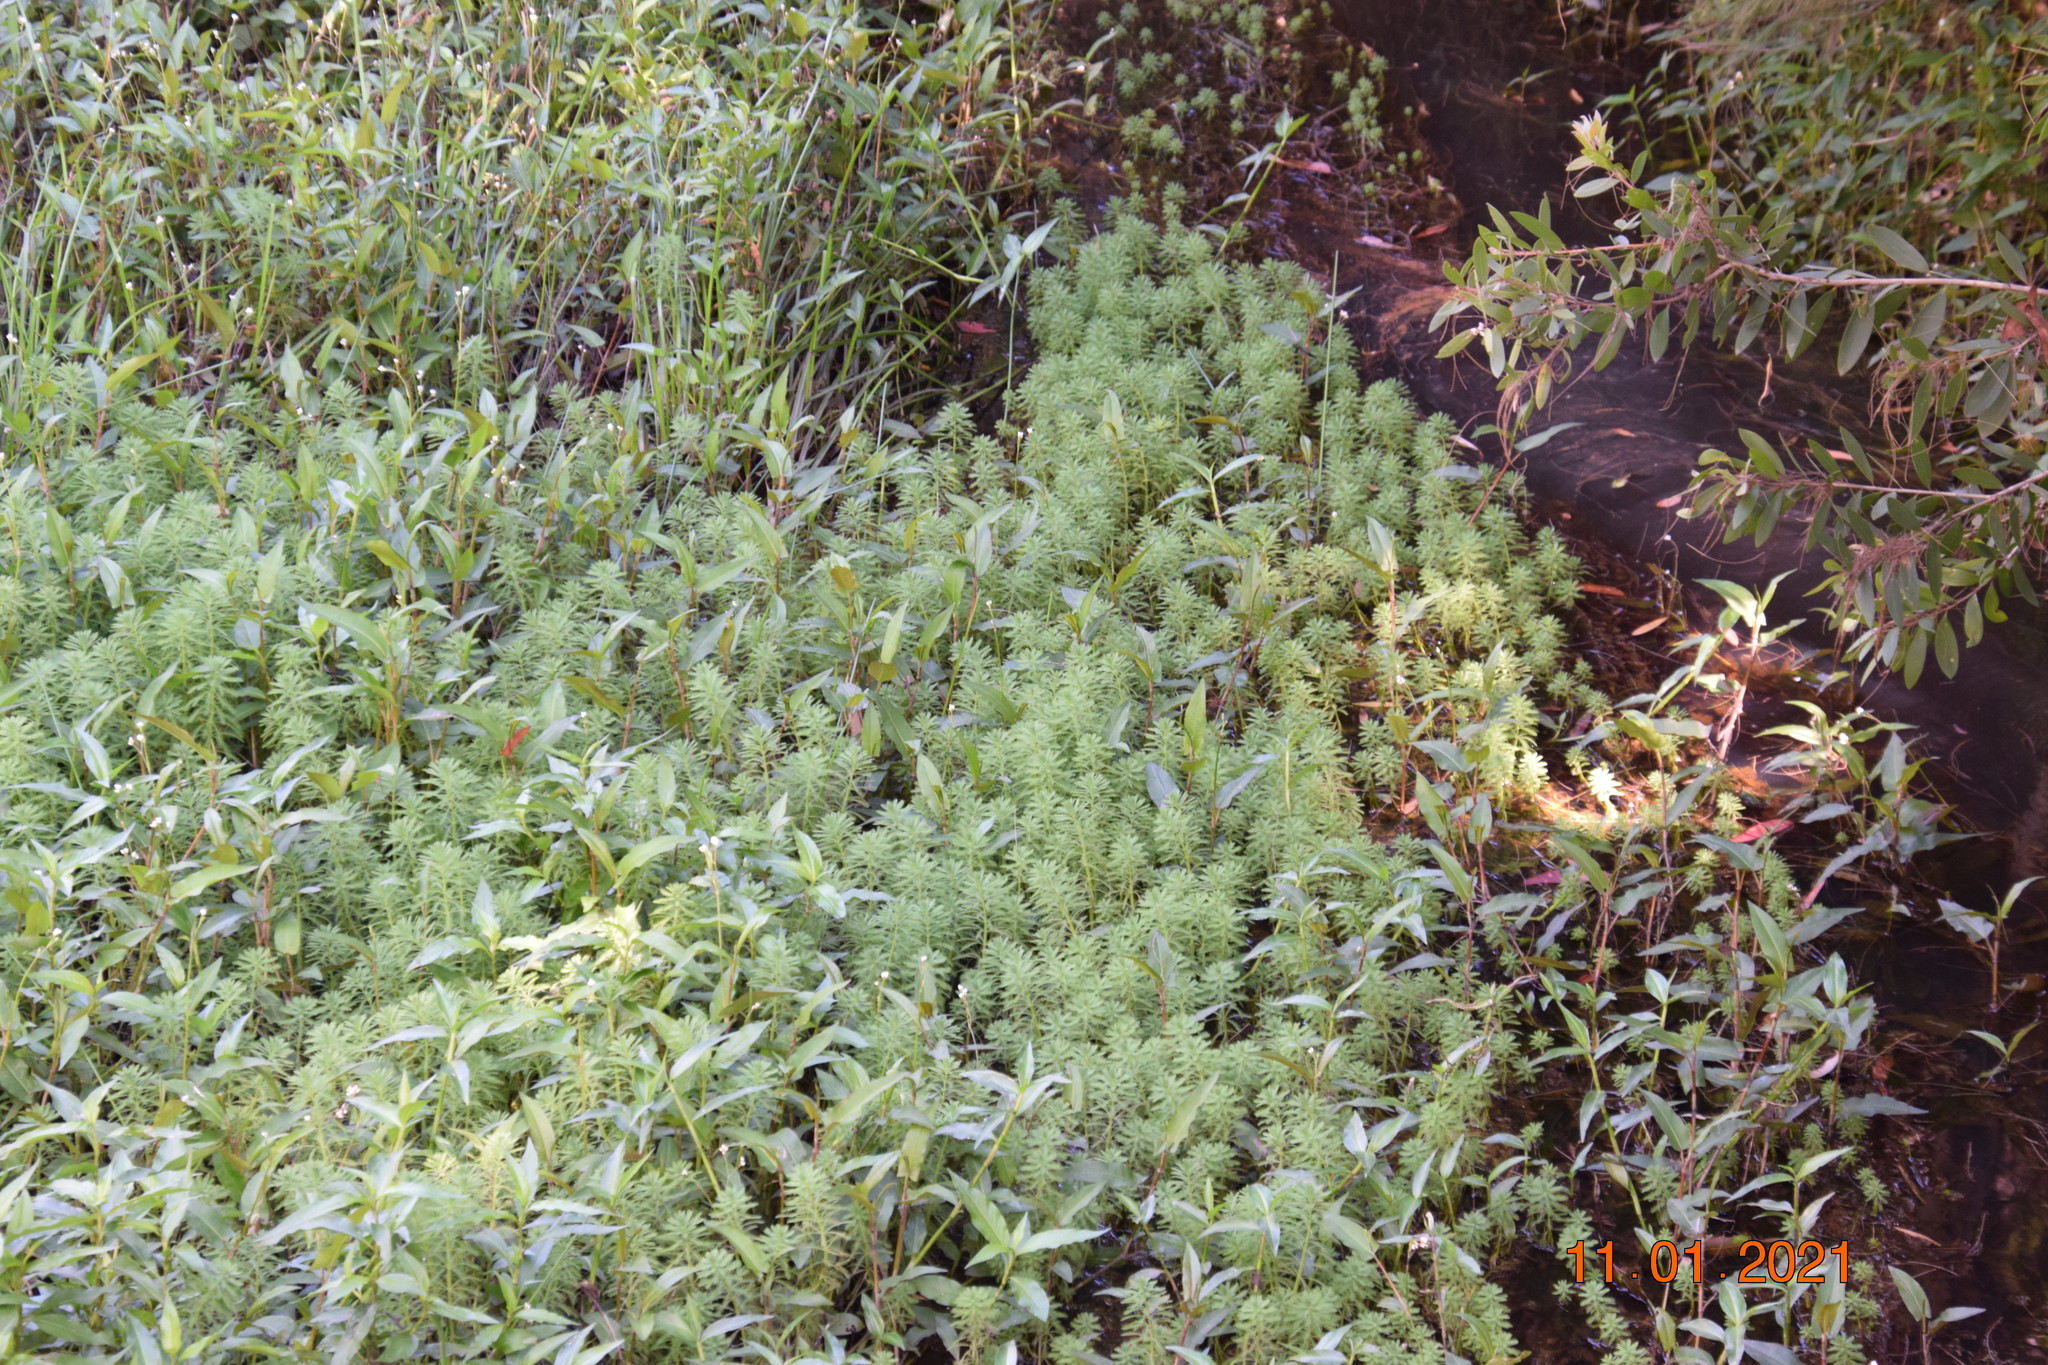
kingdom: Plantae
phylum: Tracheophyta
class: Magnoliopsida
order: Saxifragales
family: Haloragaceae
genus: Myriophyllum
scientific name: Myriophyllum aquaticum
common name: Parrot's feather
